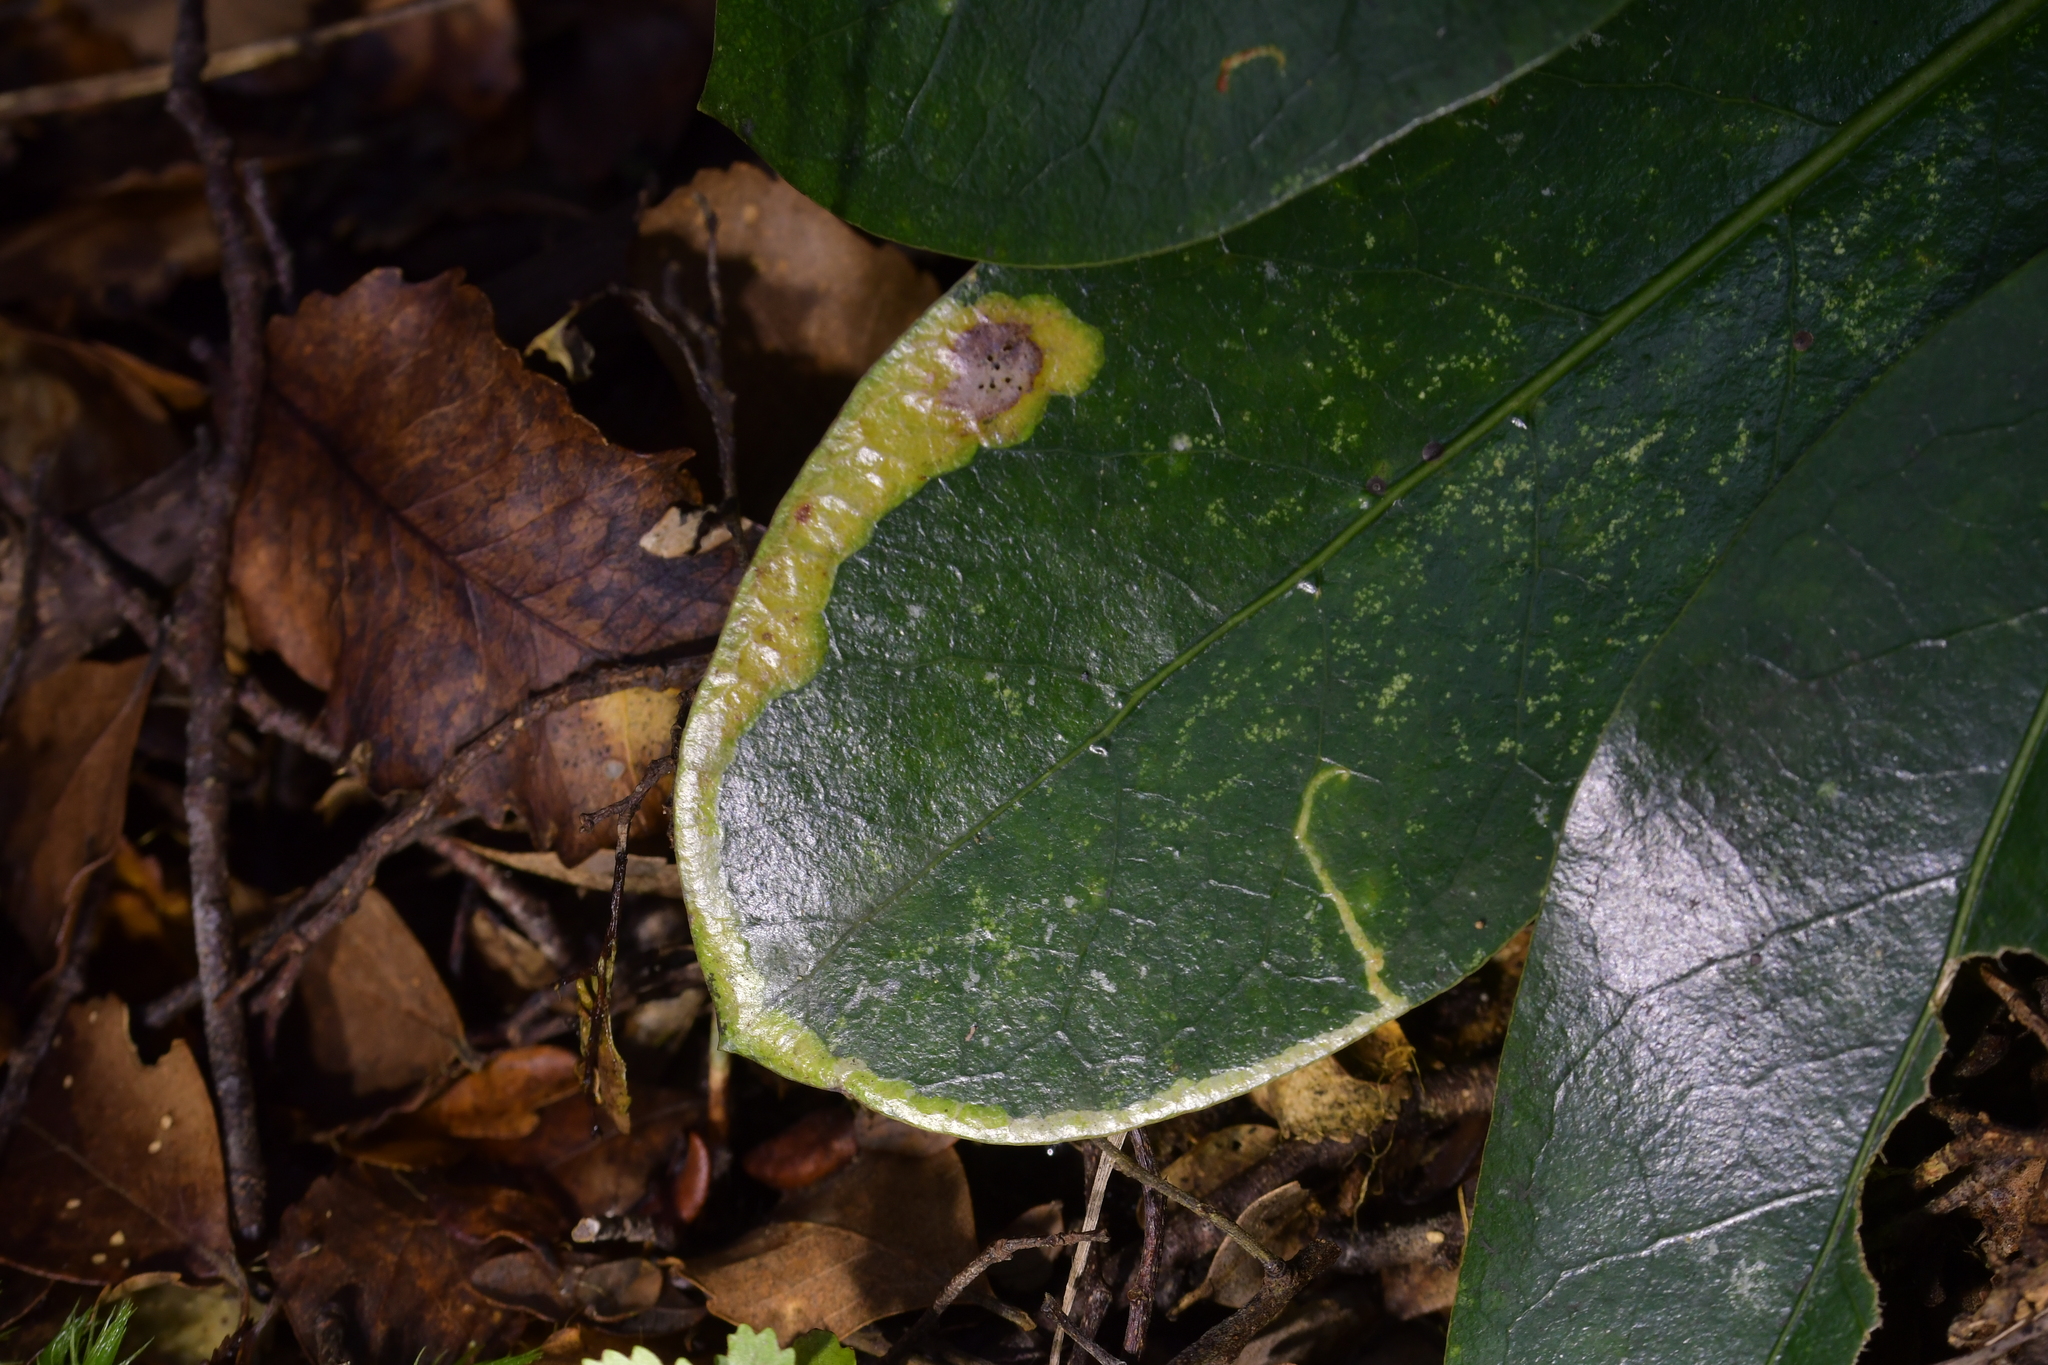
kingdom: Animalia
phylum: Arthropoda
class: Insecta
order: Lepidoptera
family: Gracillariidae
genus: Corythoxestis
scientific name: Corythoxestis zorionella
